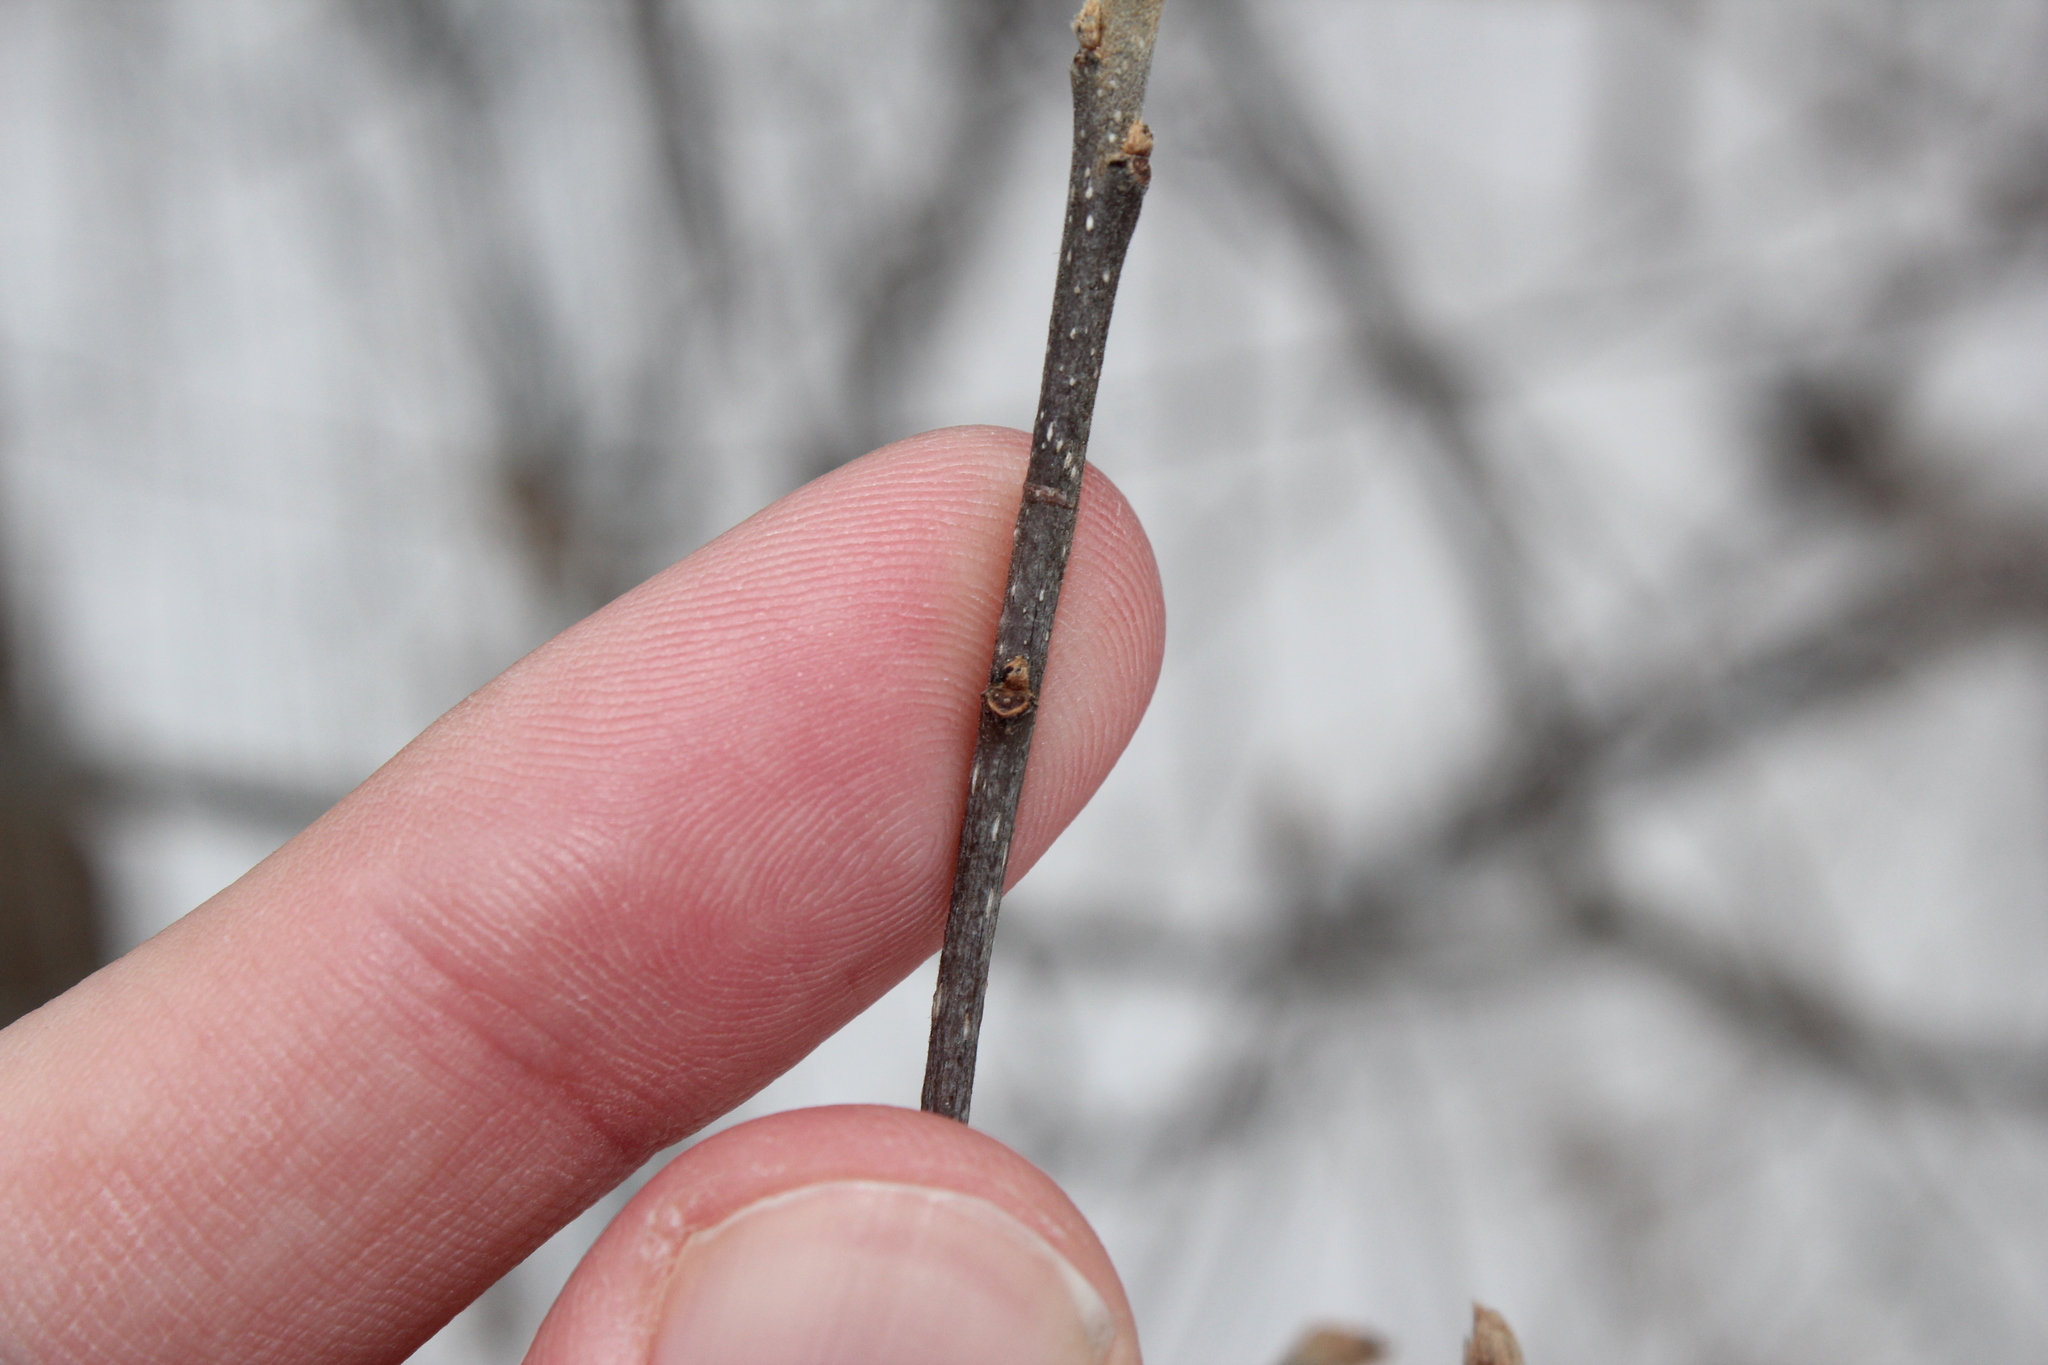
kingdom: Plantae
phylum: Tracheophyta
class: Magnoliopsida
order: Rosales
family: Rhamnaceae
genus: Frangula
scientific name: Frangula alnus
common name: Alder buckthorn
